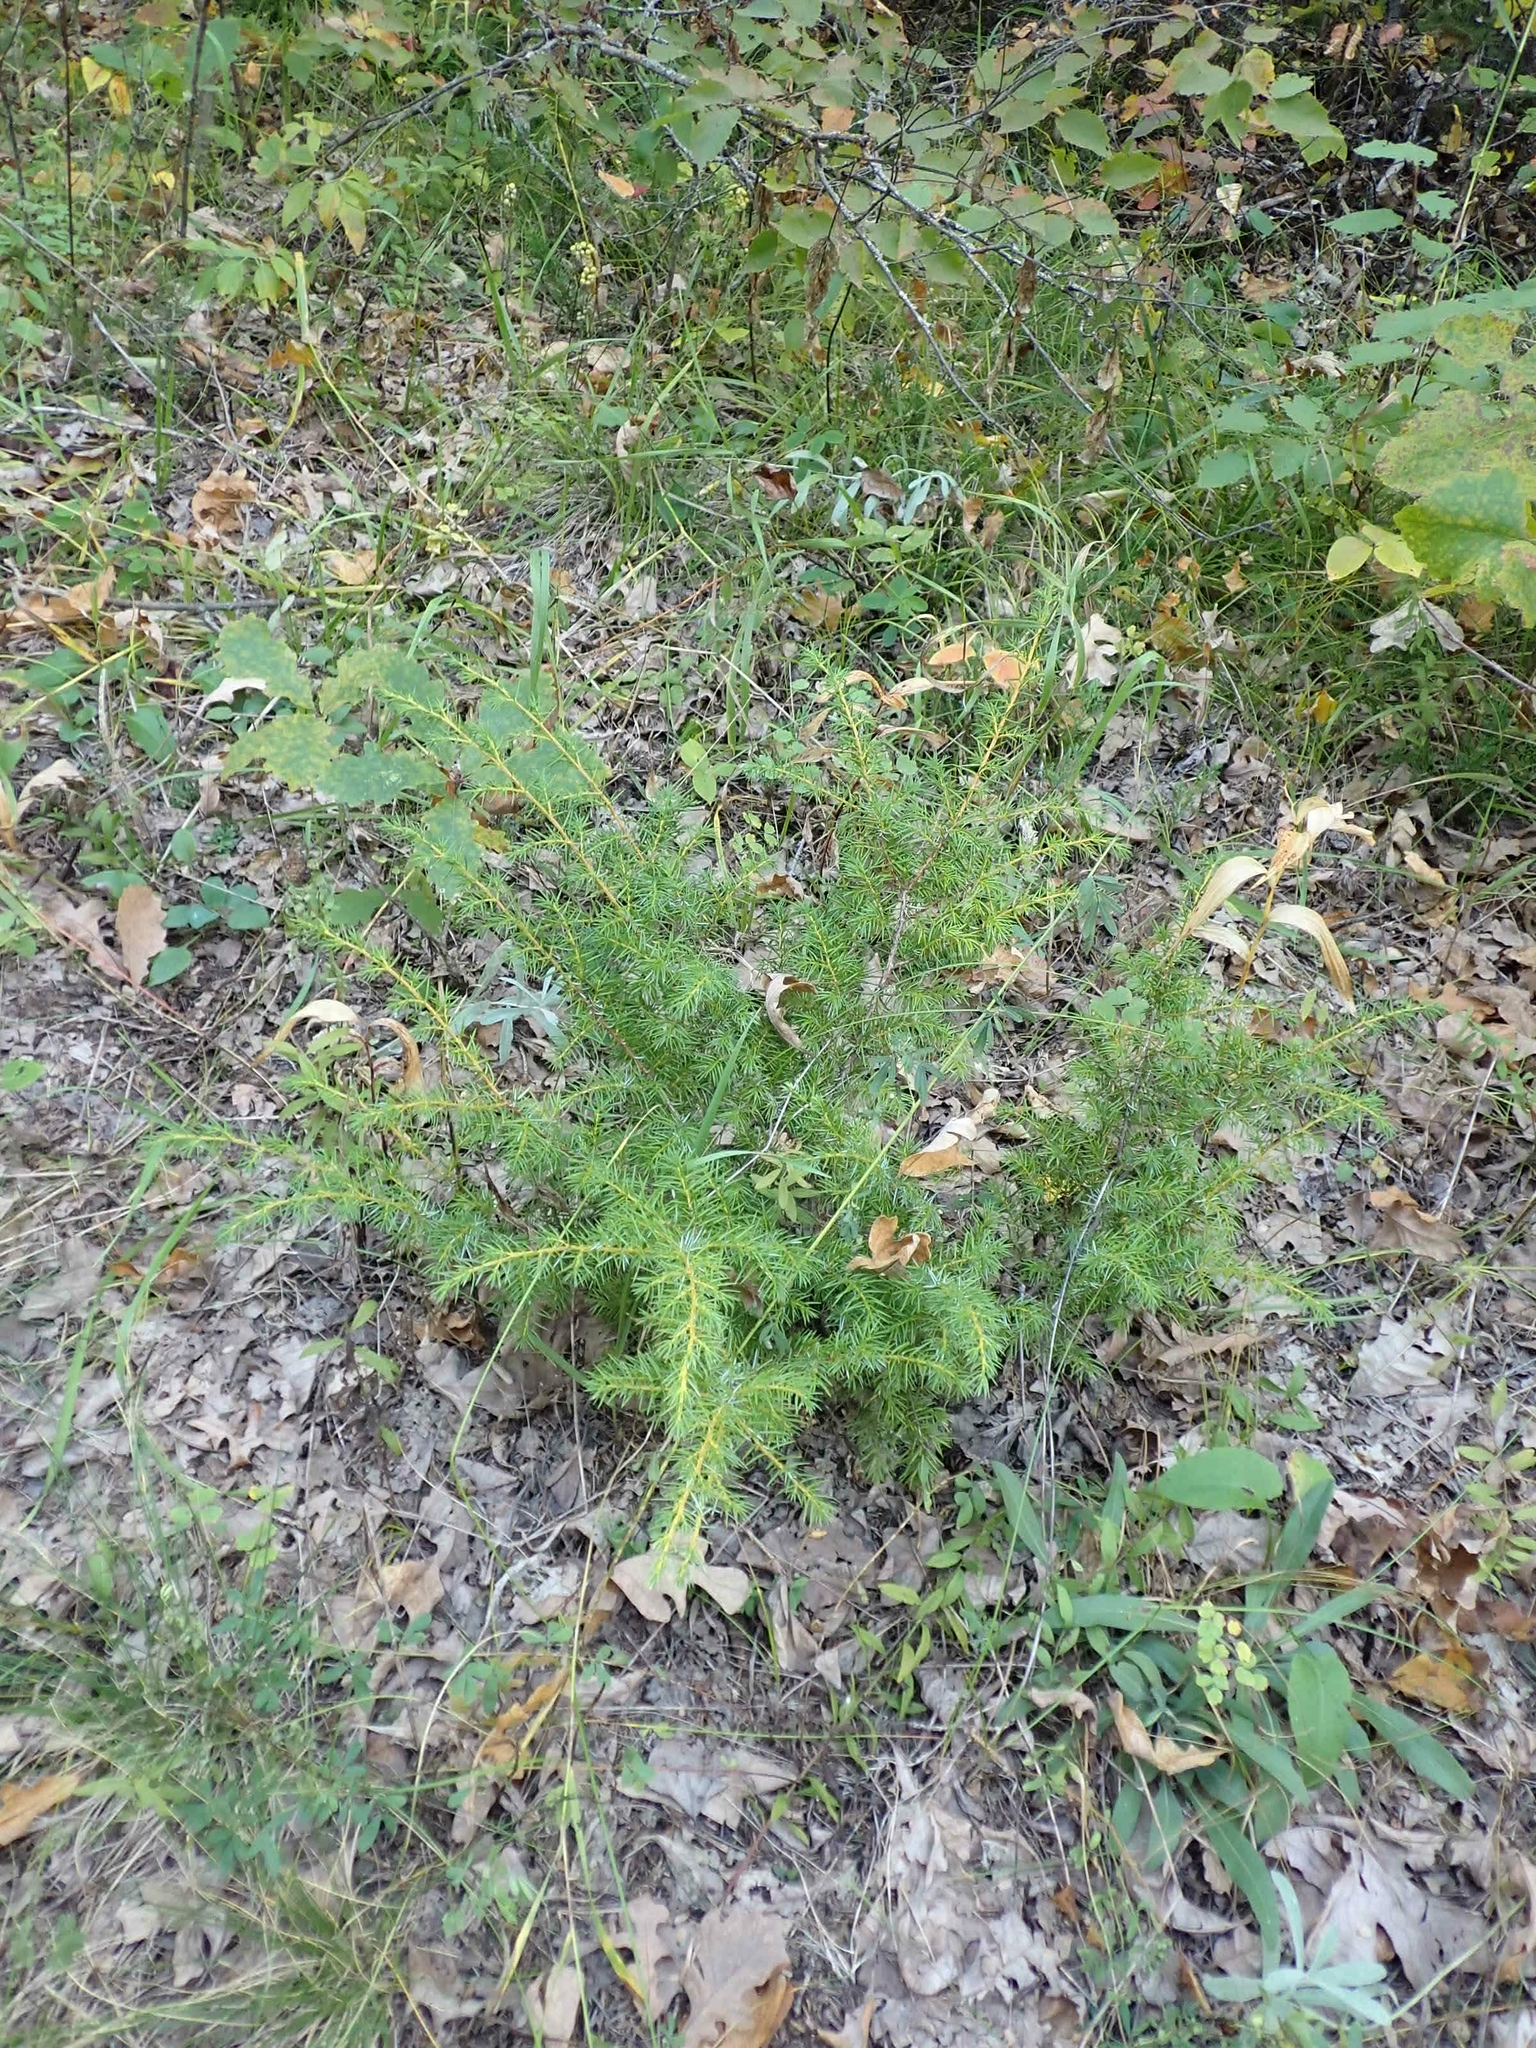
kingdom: Plantae
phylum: Tracheophyta
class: Pinopsida
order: Pinales
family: Cupressaceae
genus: Juniperus
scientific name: Juniperus communis
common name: Common juniper
